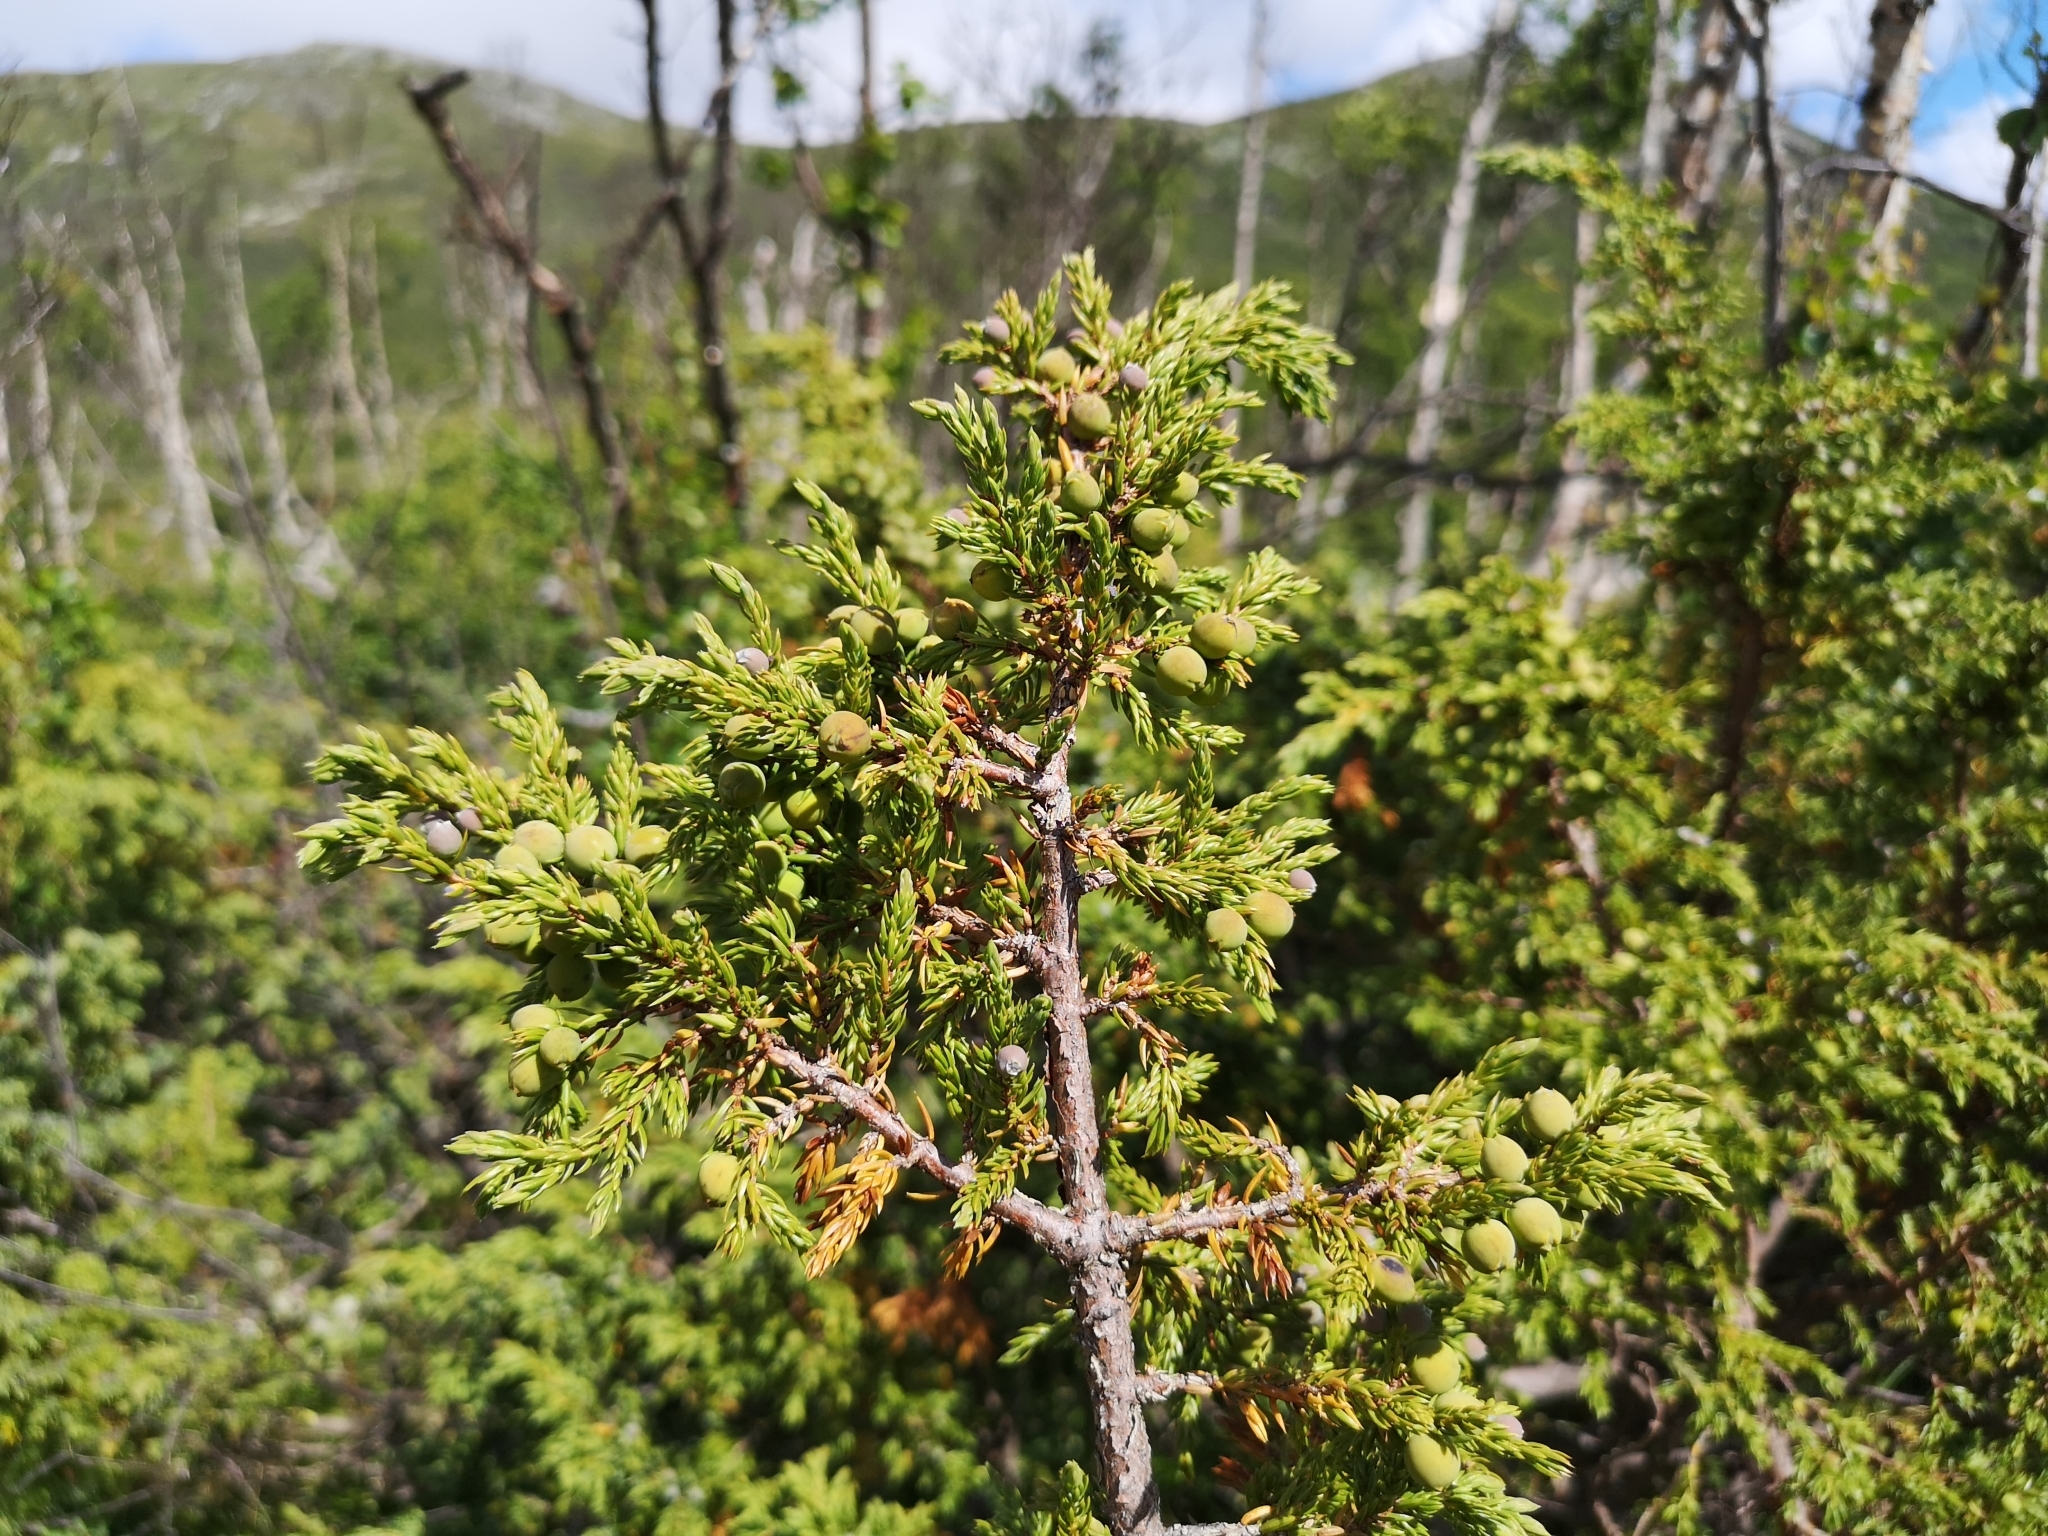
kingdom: Plantae
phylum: Tracheophyta
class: Pinopsida
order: Pinales
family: Cupressaceae
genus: Juniperus
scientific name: Juniperus communis
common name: Common juniper
